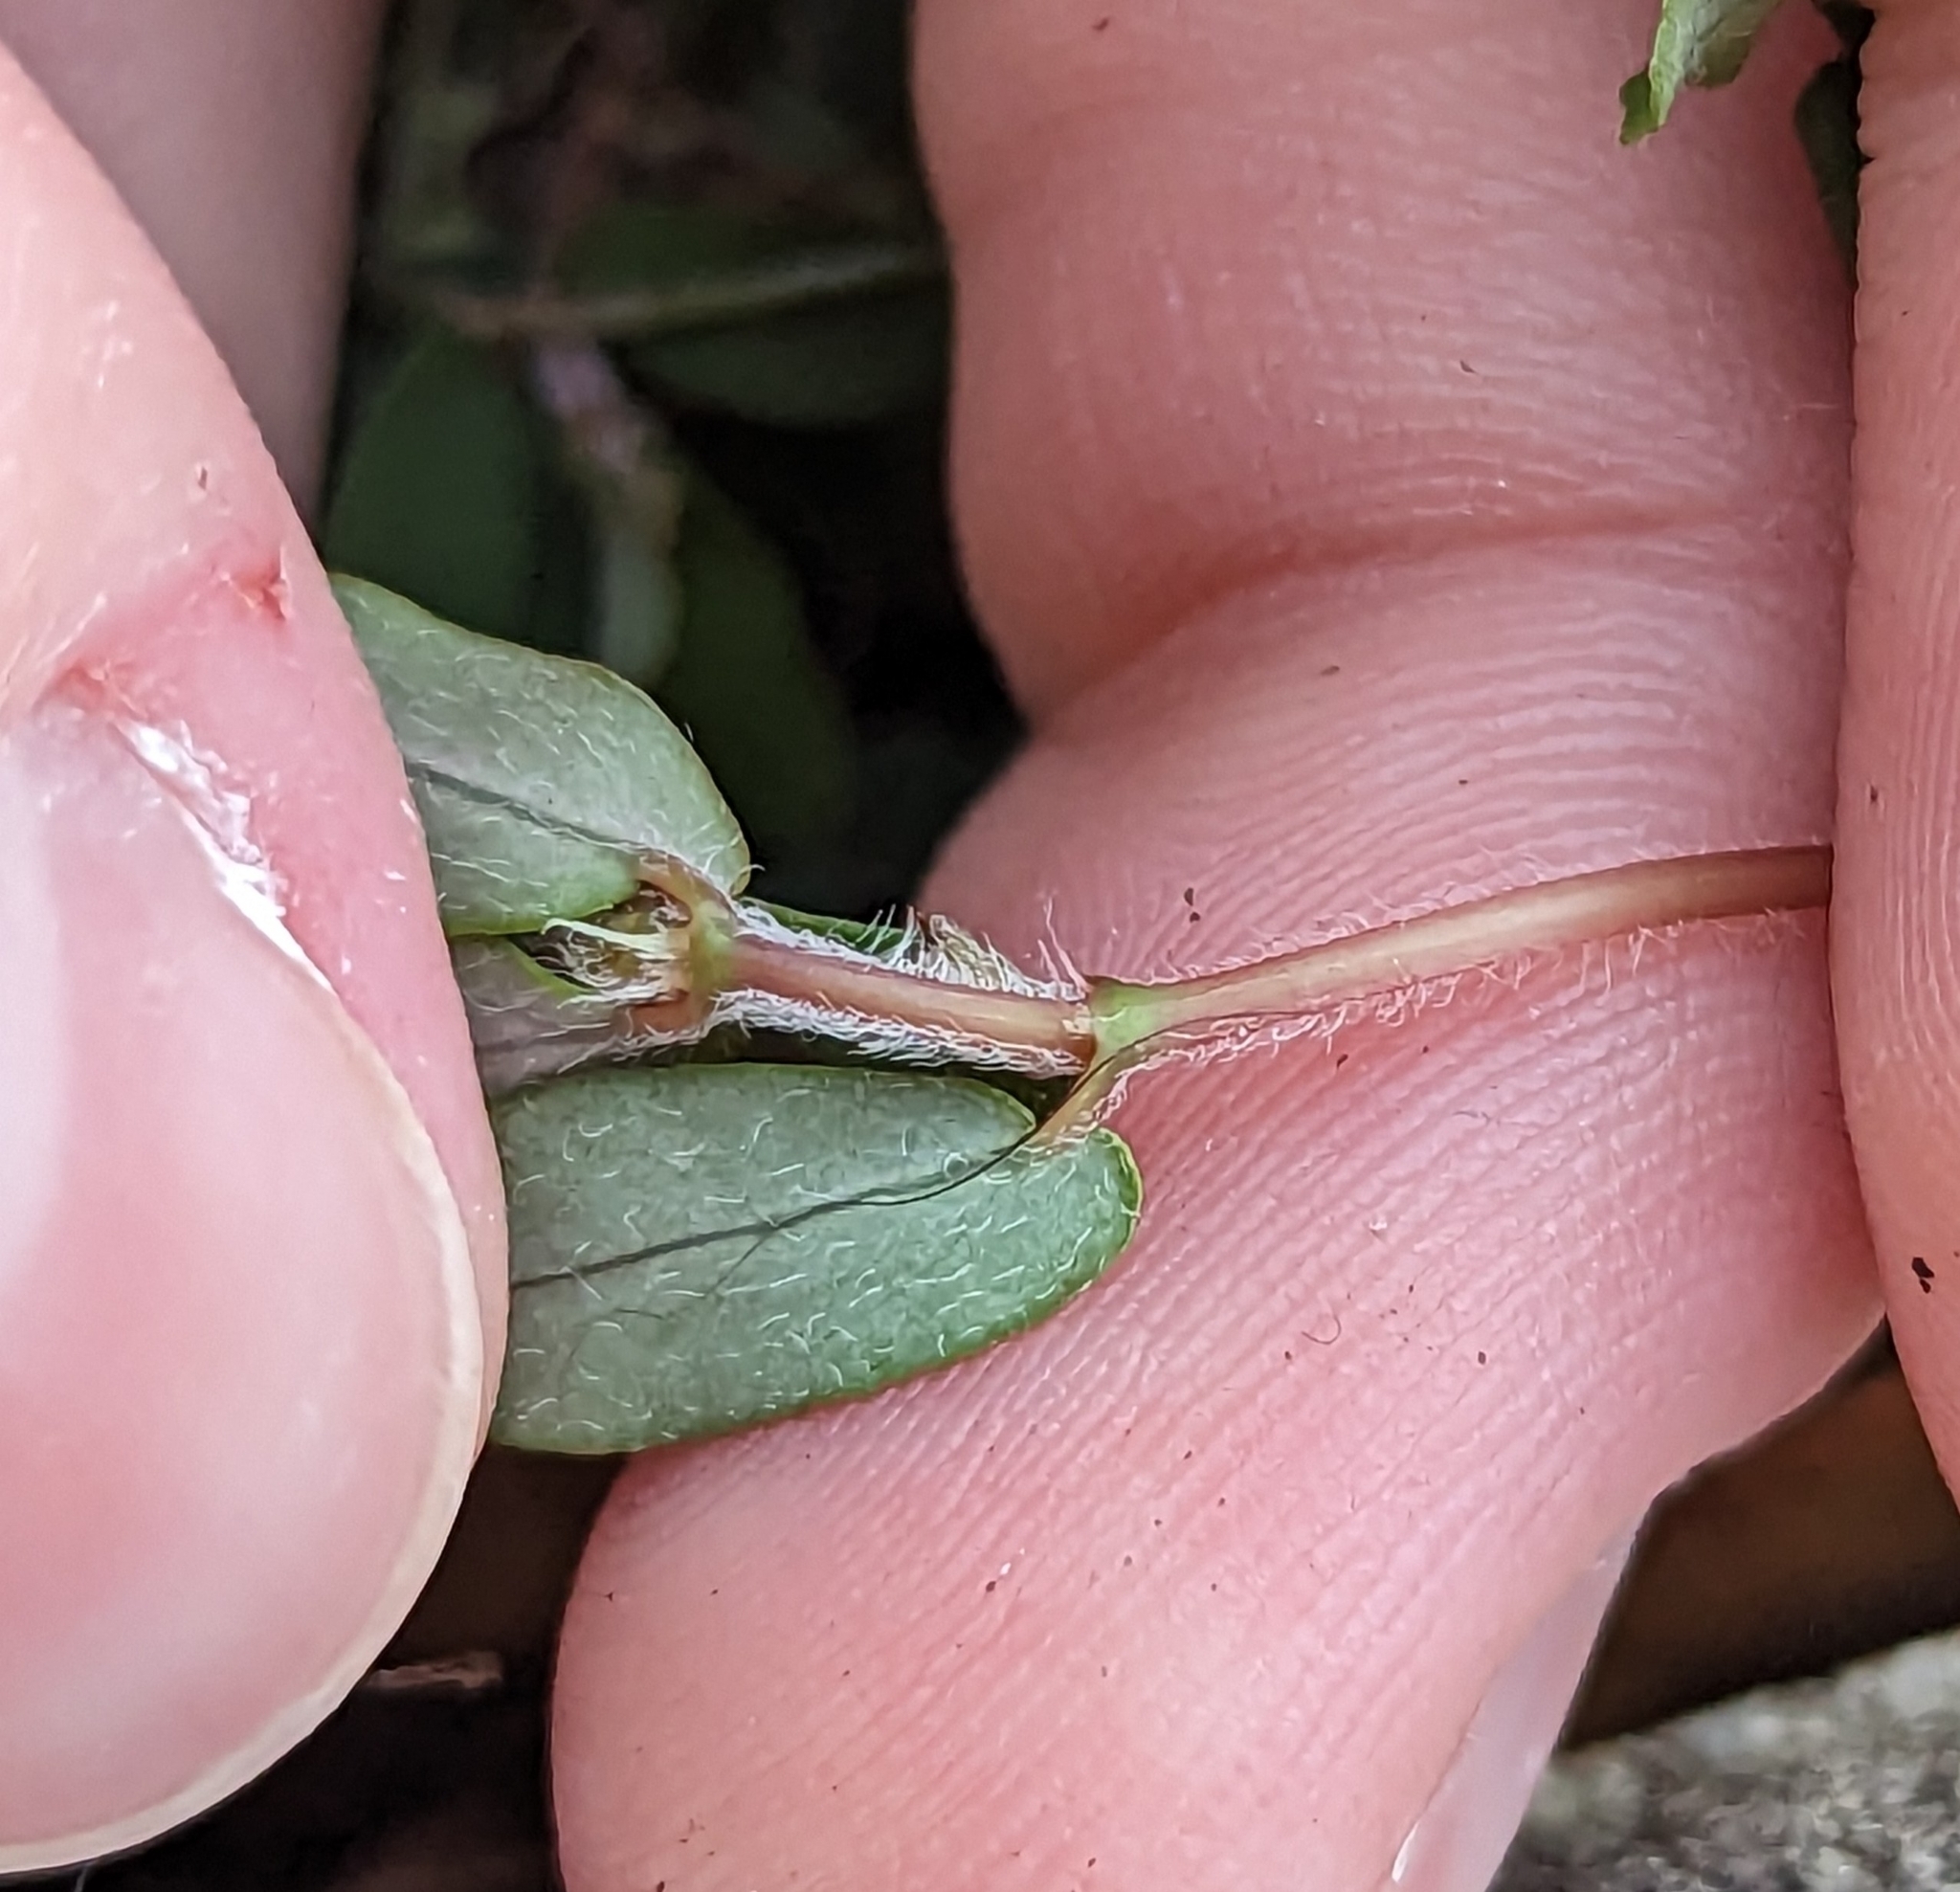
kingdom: Plantae
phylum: Tracheophyta
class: Magnoliopsida
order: Malpighiales
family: Euphorbiaceae
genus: Euphorbia
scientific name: Euphorbia maculata
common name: Spotted spurge
